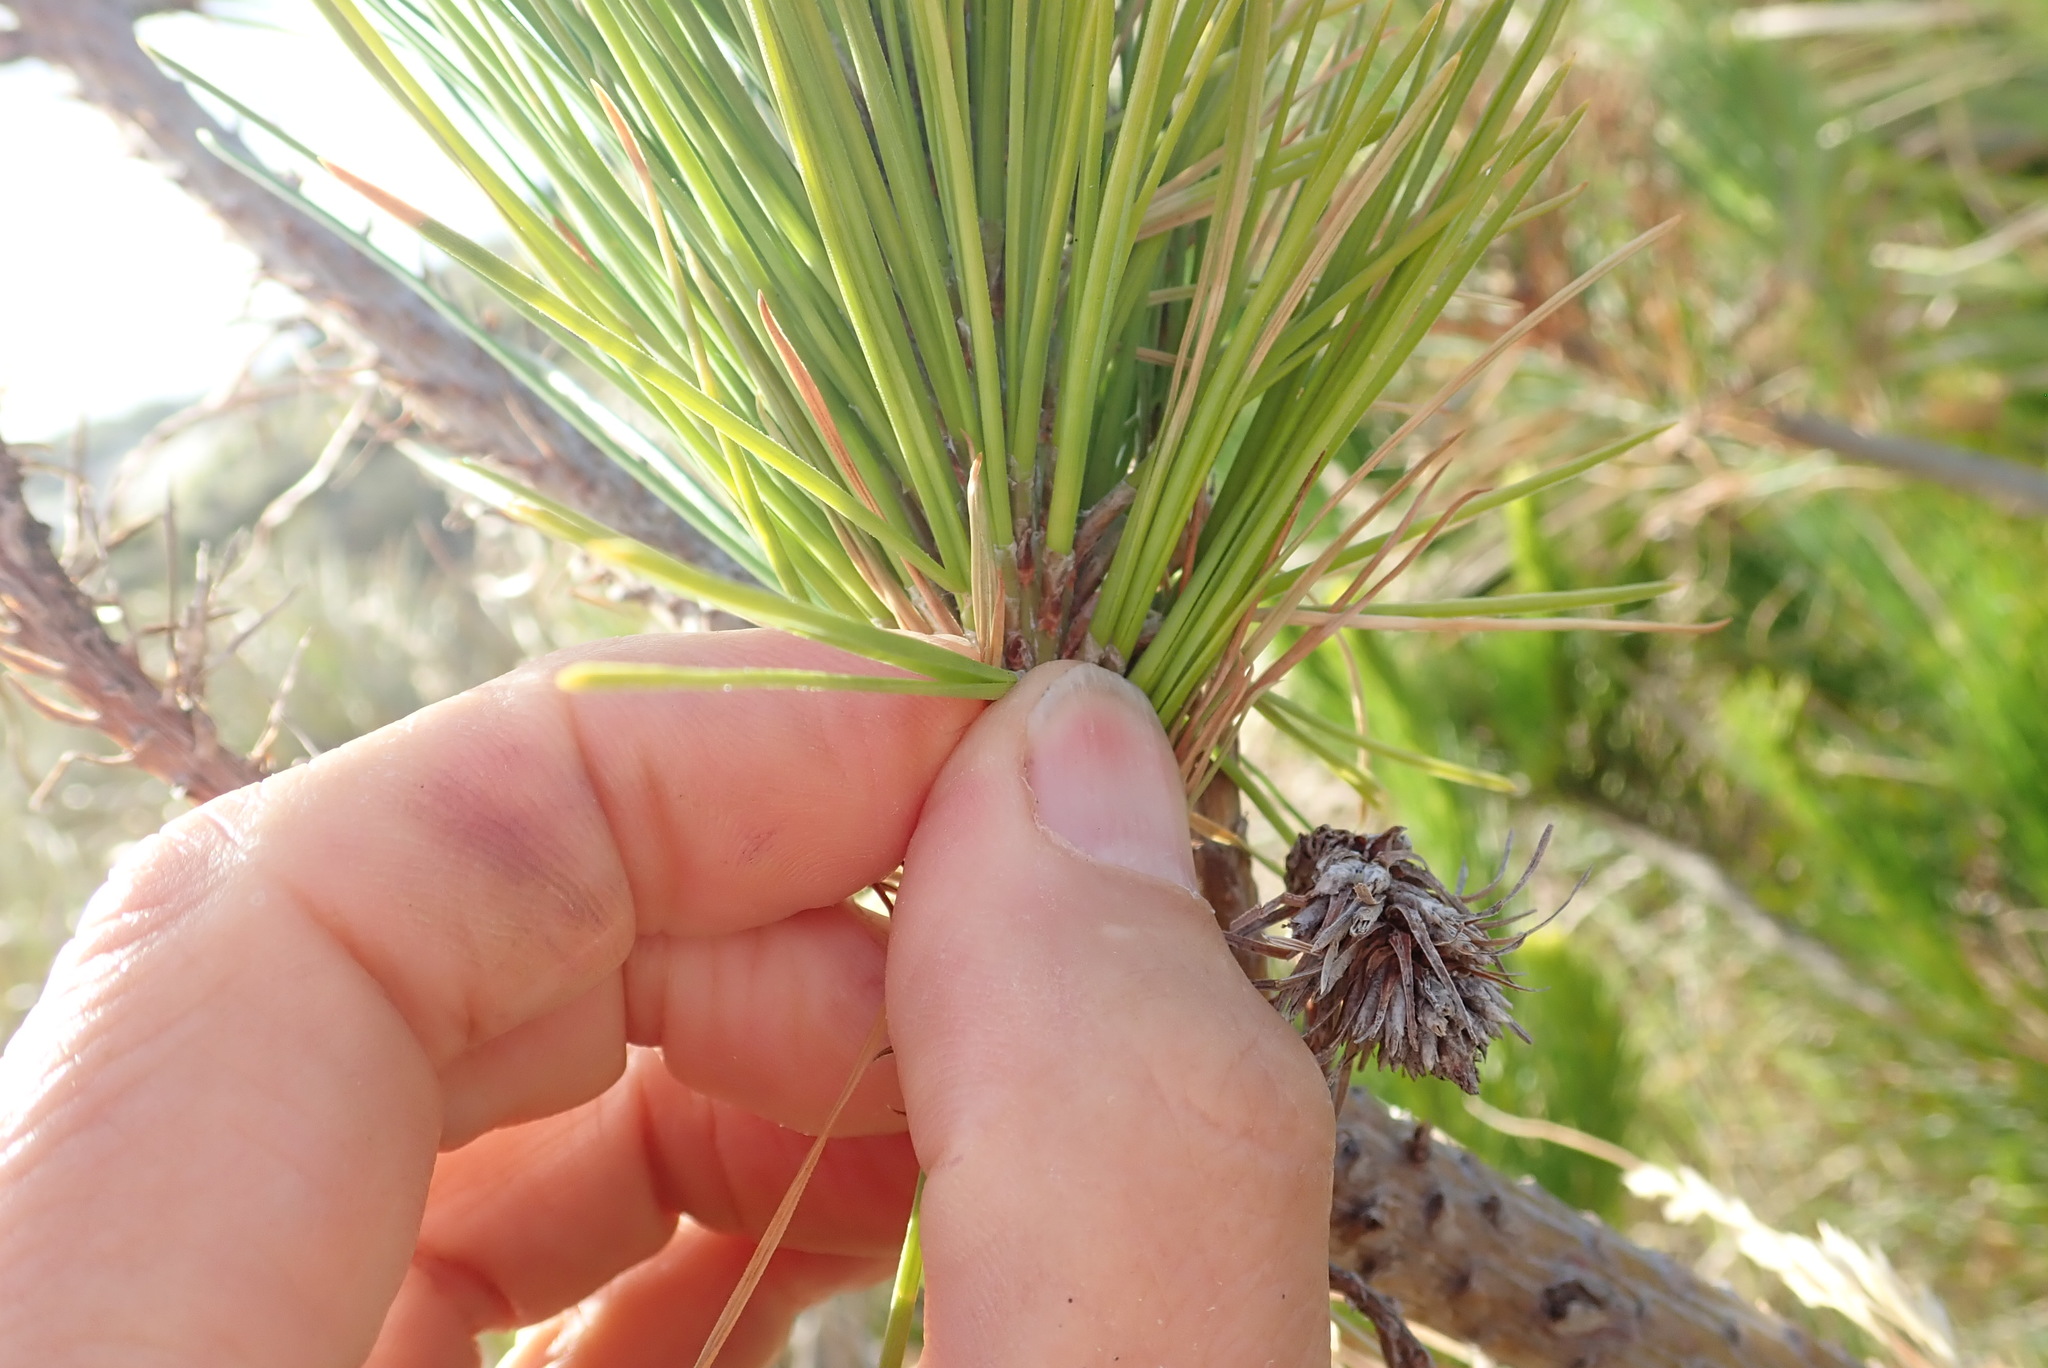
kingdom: Plantae
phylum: Tracheophyta
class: Pinopsida
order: Pinales
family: Pinaceae
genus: Pinus
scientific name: Pinus radiata
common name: Monterey pine
